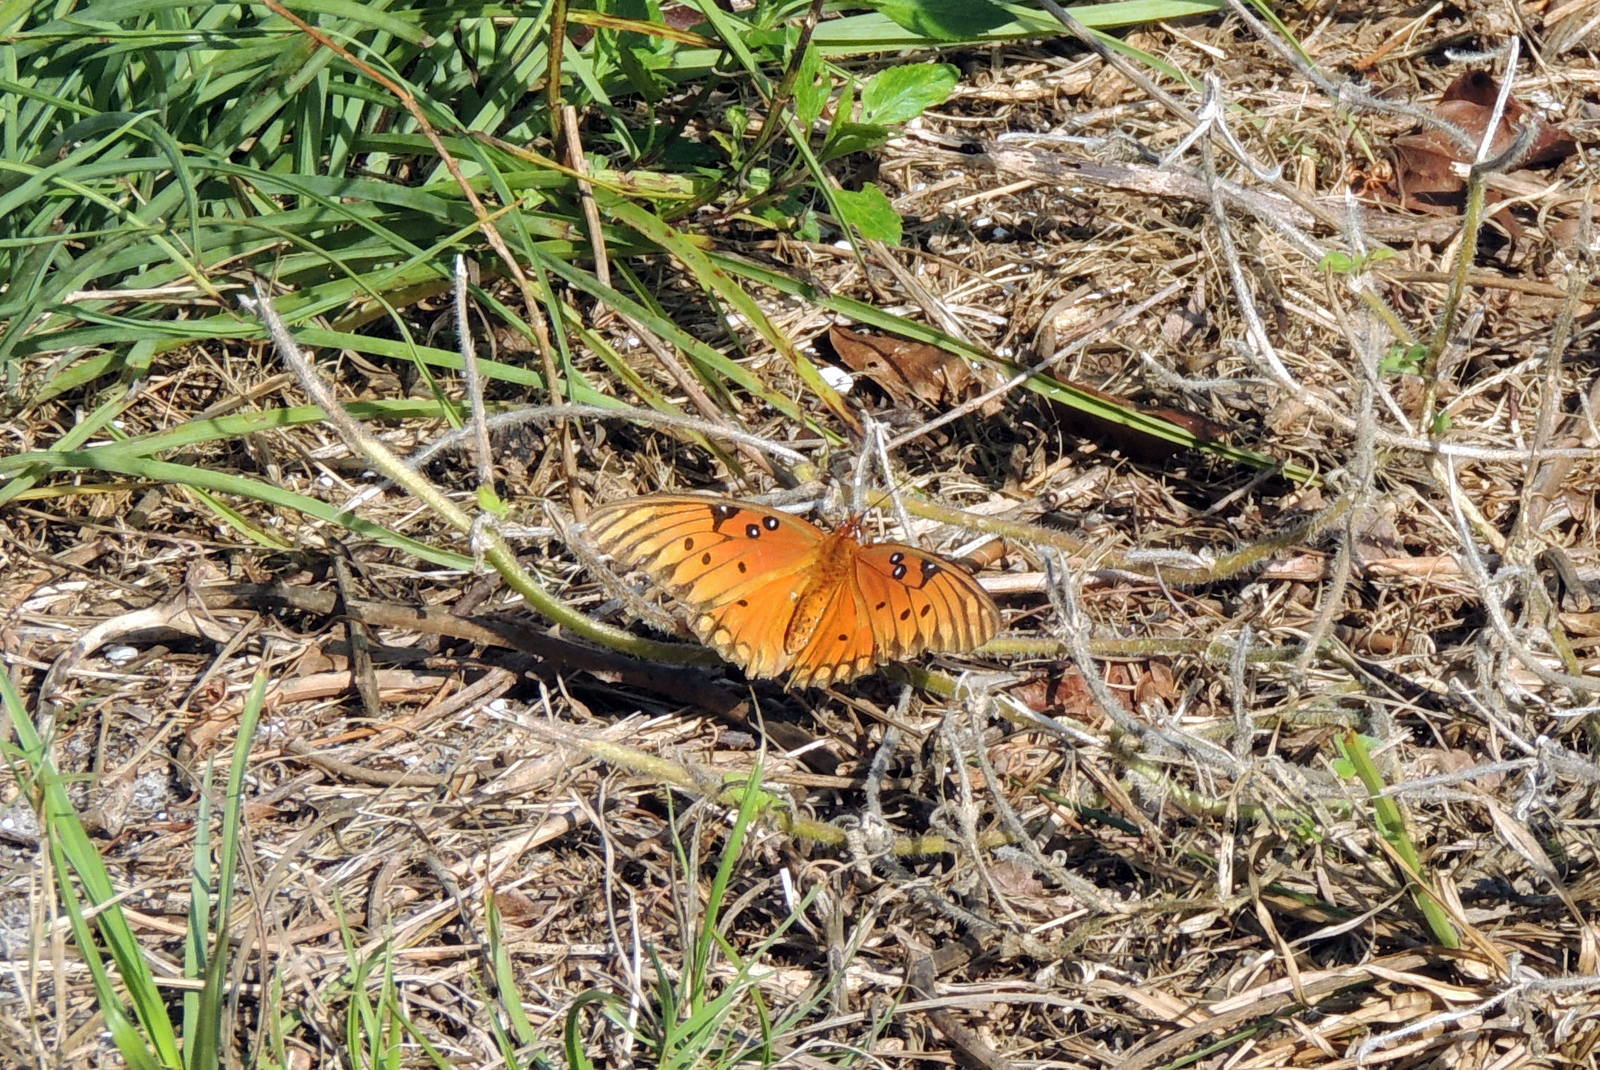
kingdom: Animalia
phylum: Arthropoda
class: Insecta
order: Lepidoptera
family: Nymphalidae
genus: Dione
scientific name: Dione vanillae
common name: Gulf fritillary
